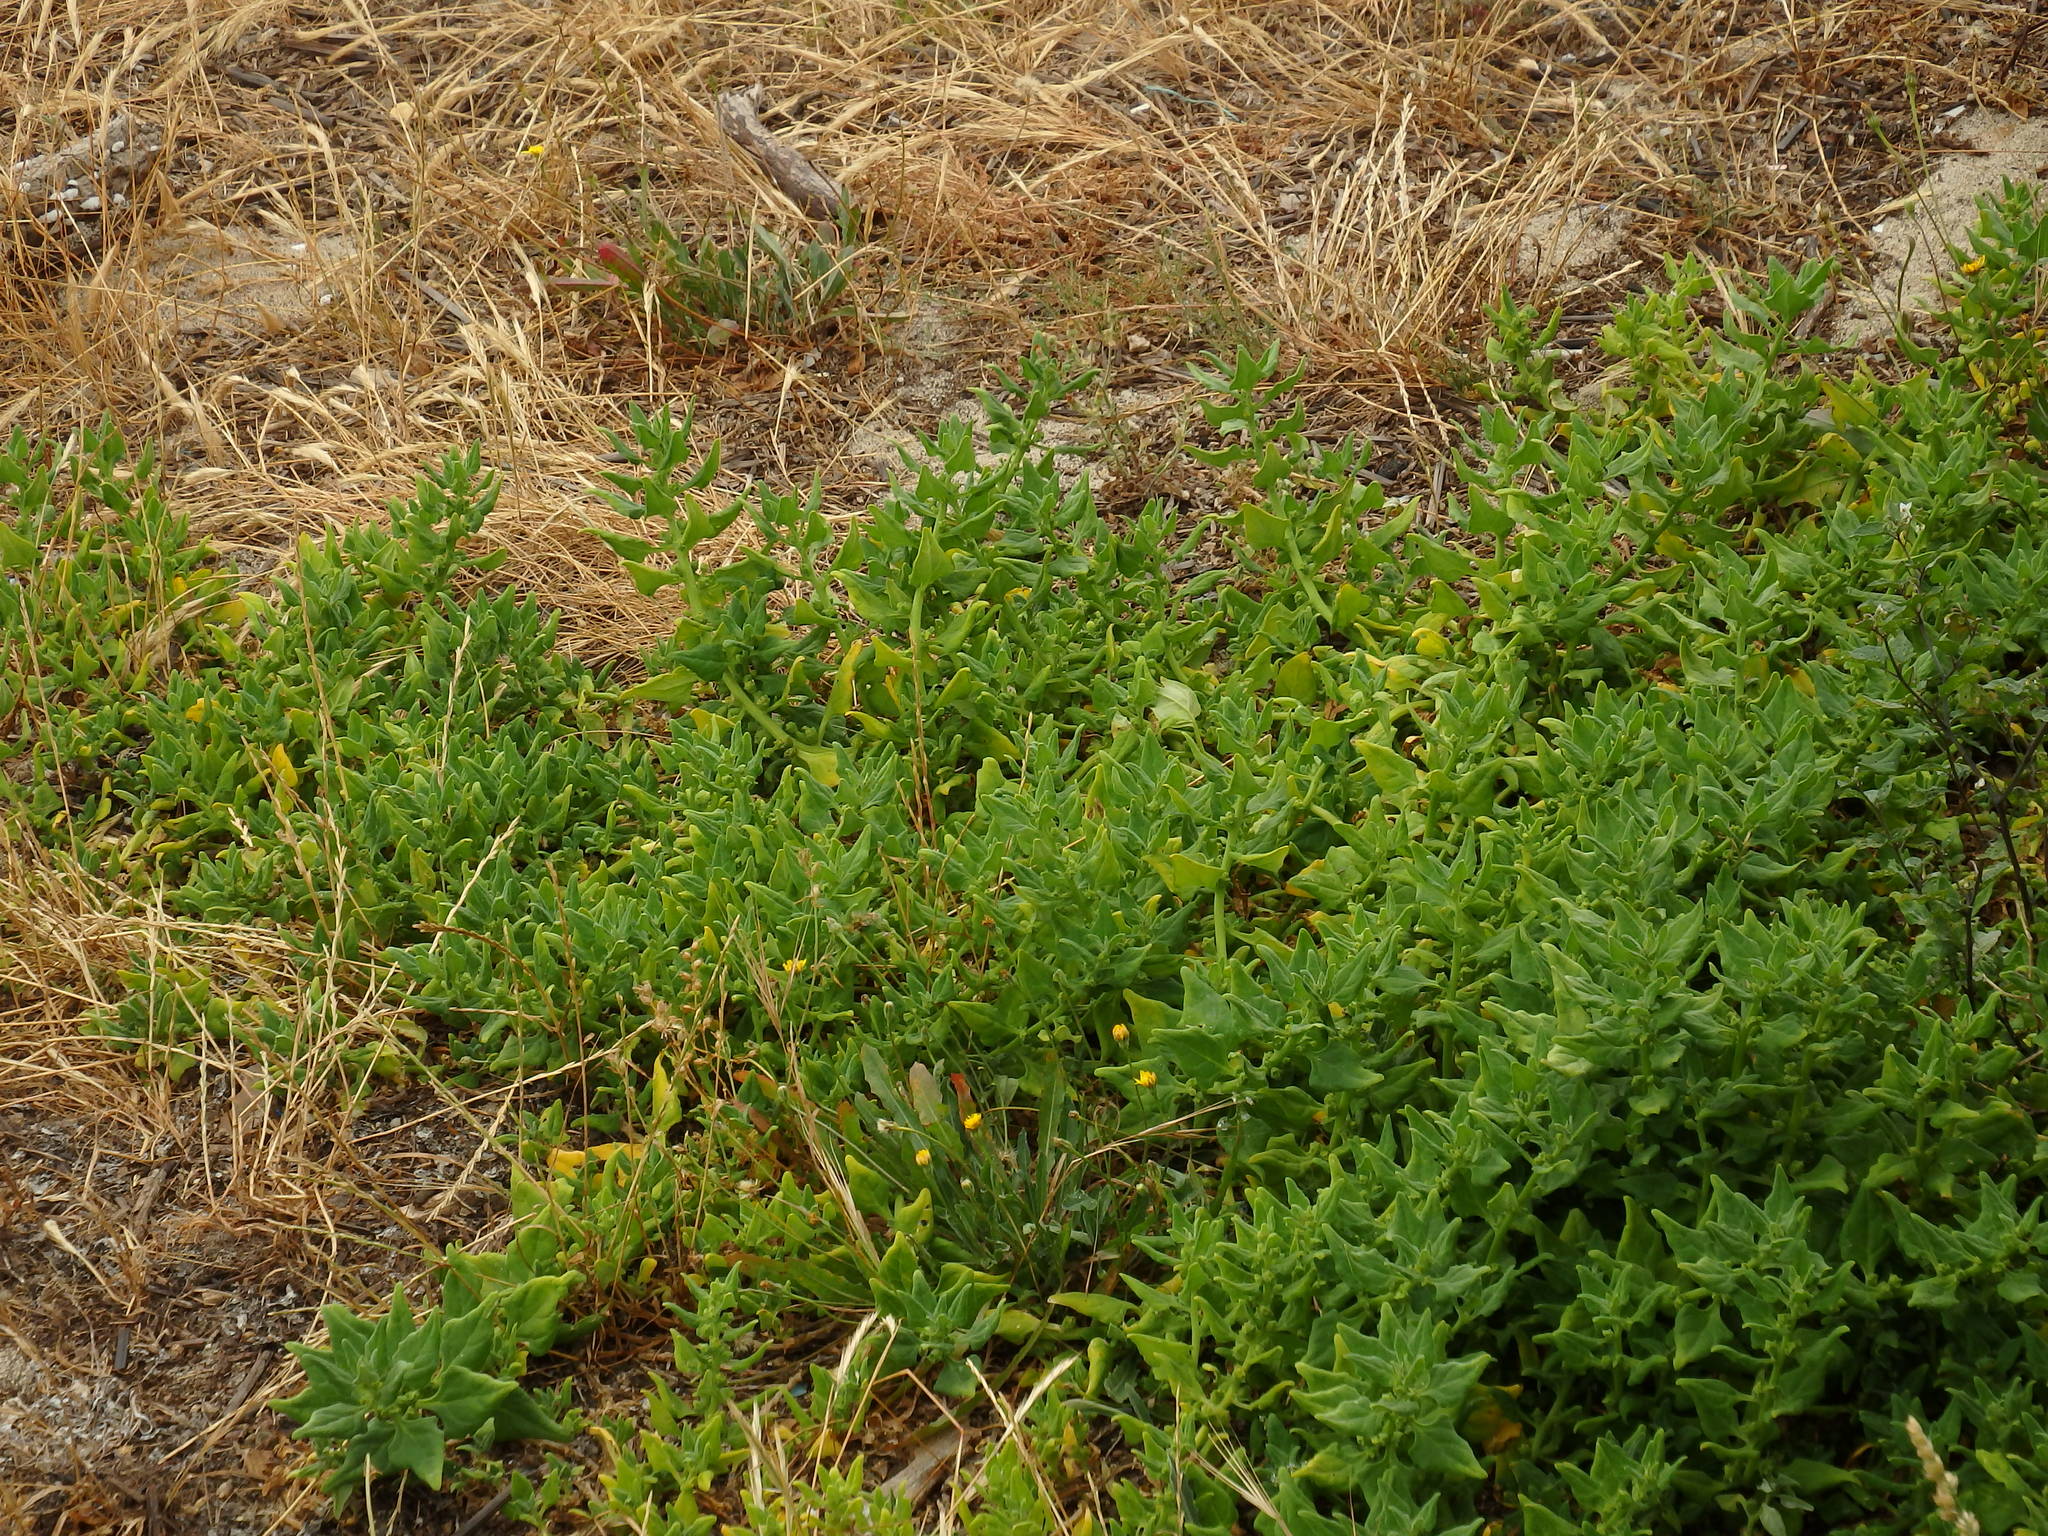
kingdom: Plantae
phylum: Tracheophyta
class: Magnoliopsida
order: Caryophyllales
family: Aizoaceae
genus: Tetragonia
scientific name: Tetragonia tetragonoides
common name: New zealand-spinach
